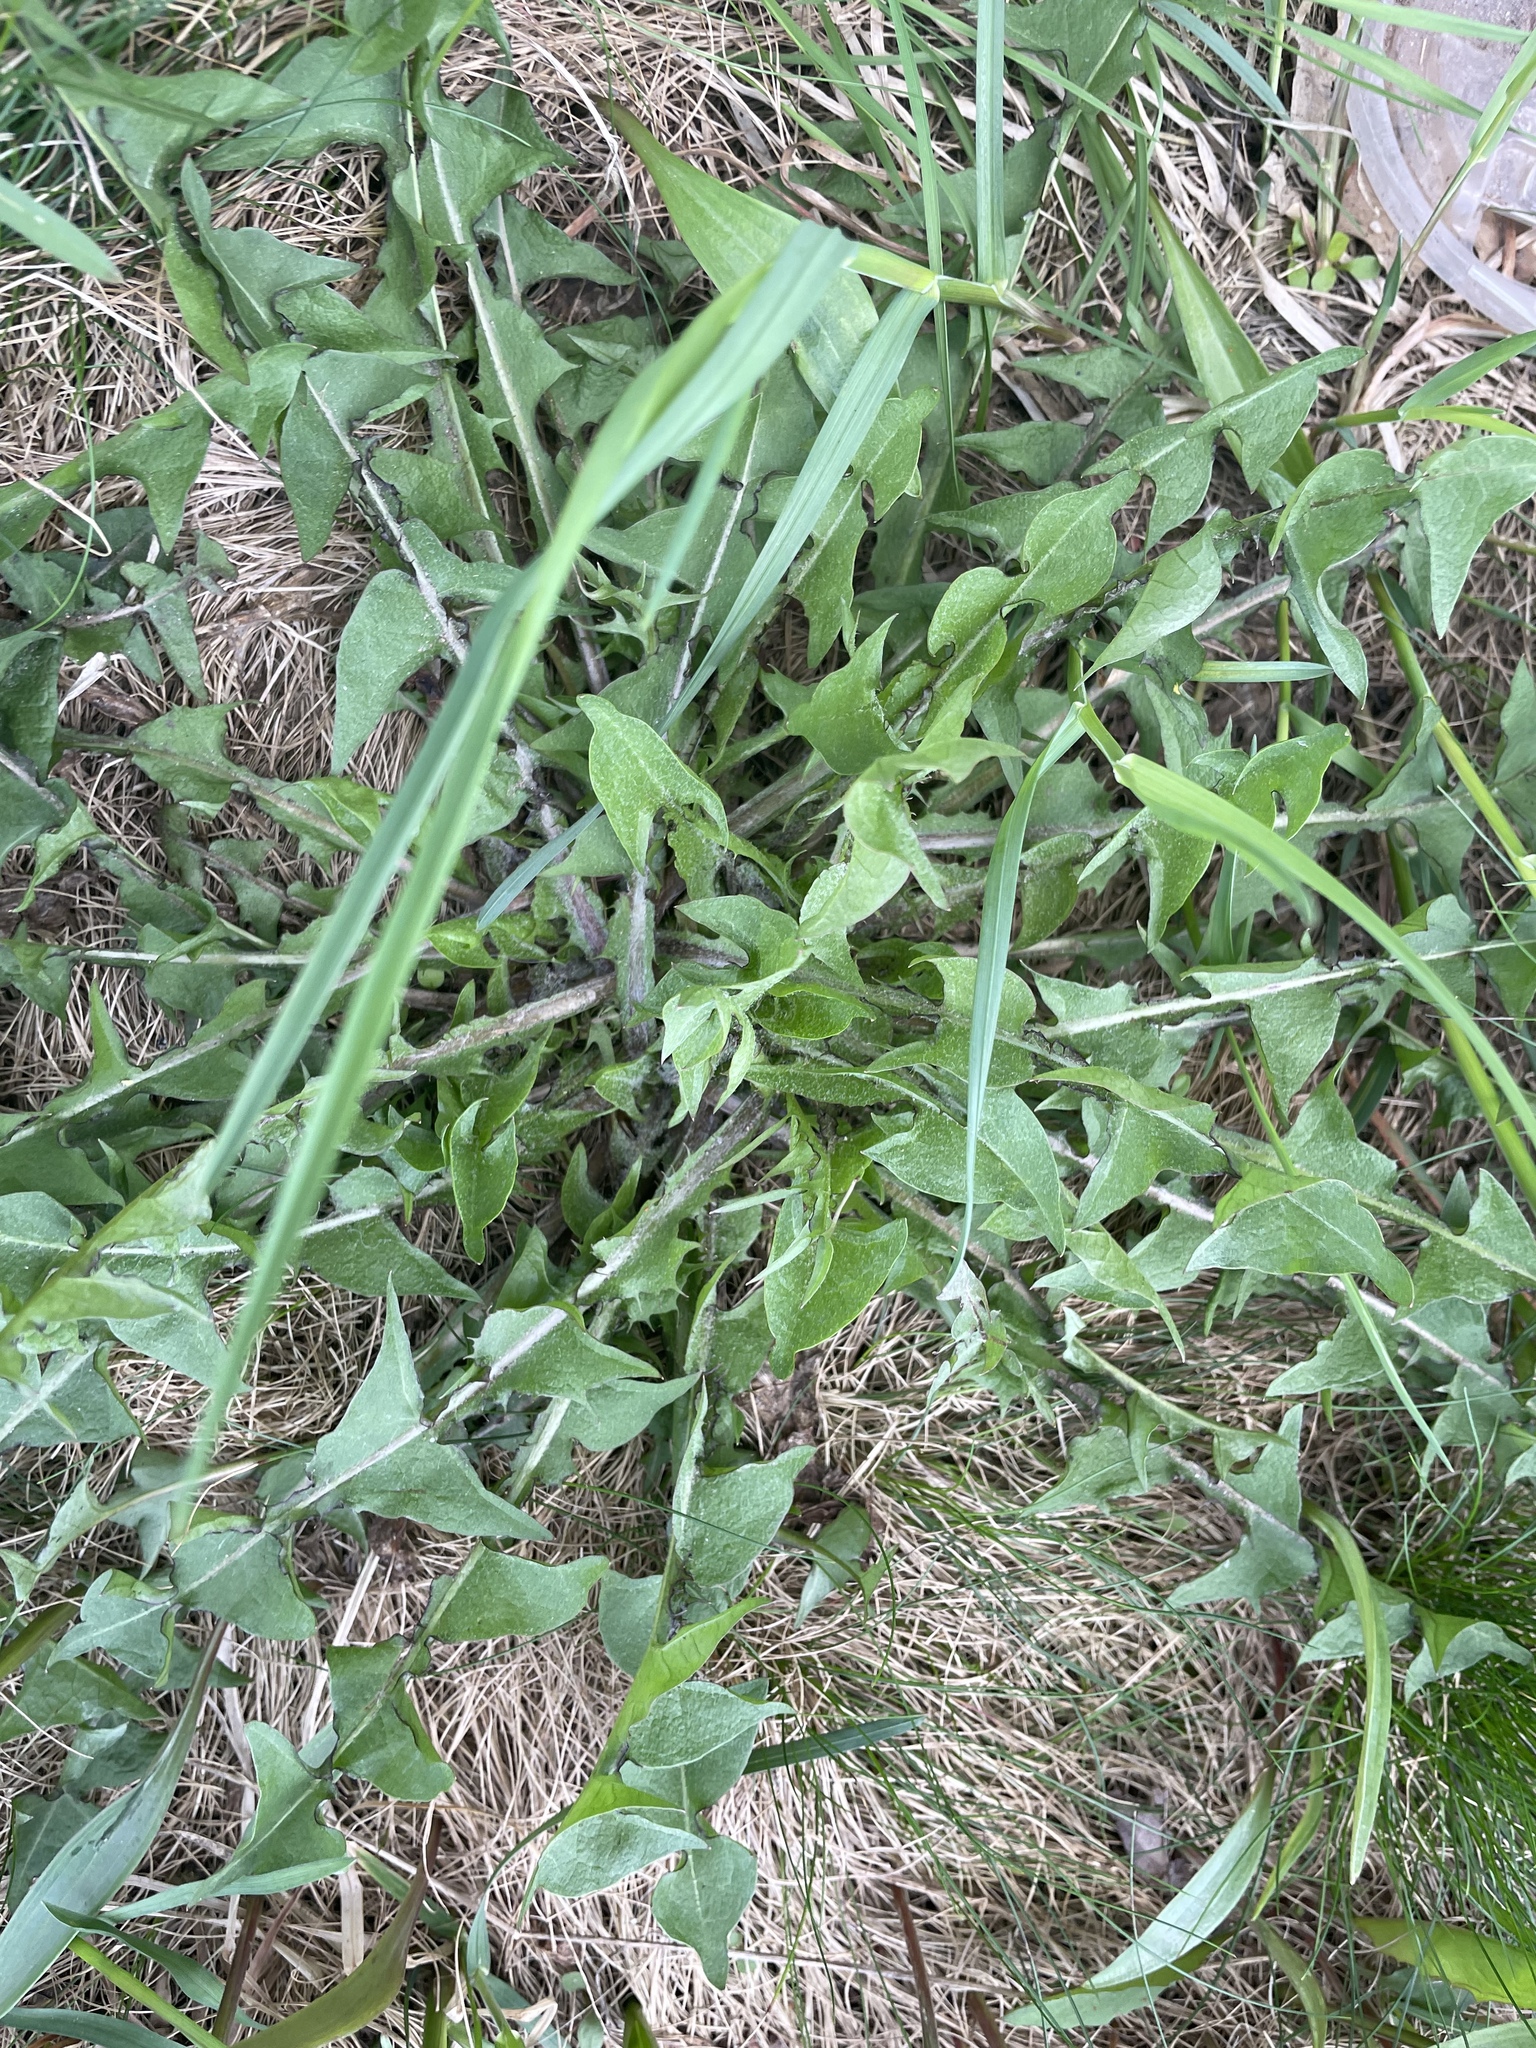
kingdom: Plantae
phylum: Tracheophyta
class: Magnoliopsida
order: Asterales
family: Asteraceae
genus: Taraxacum
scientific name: Taraxacum officinale
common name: Common dandelion
